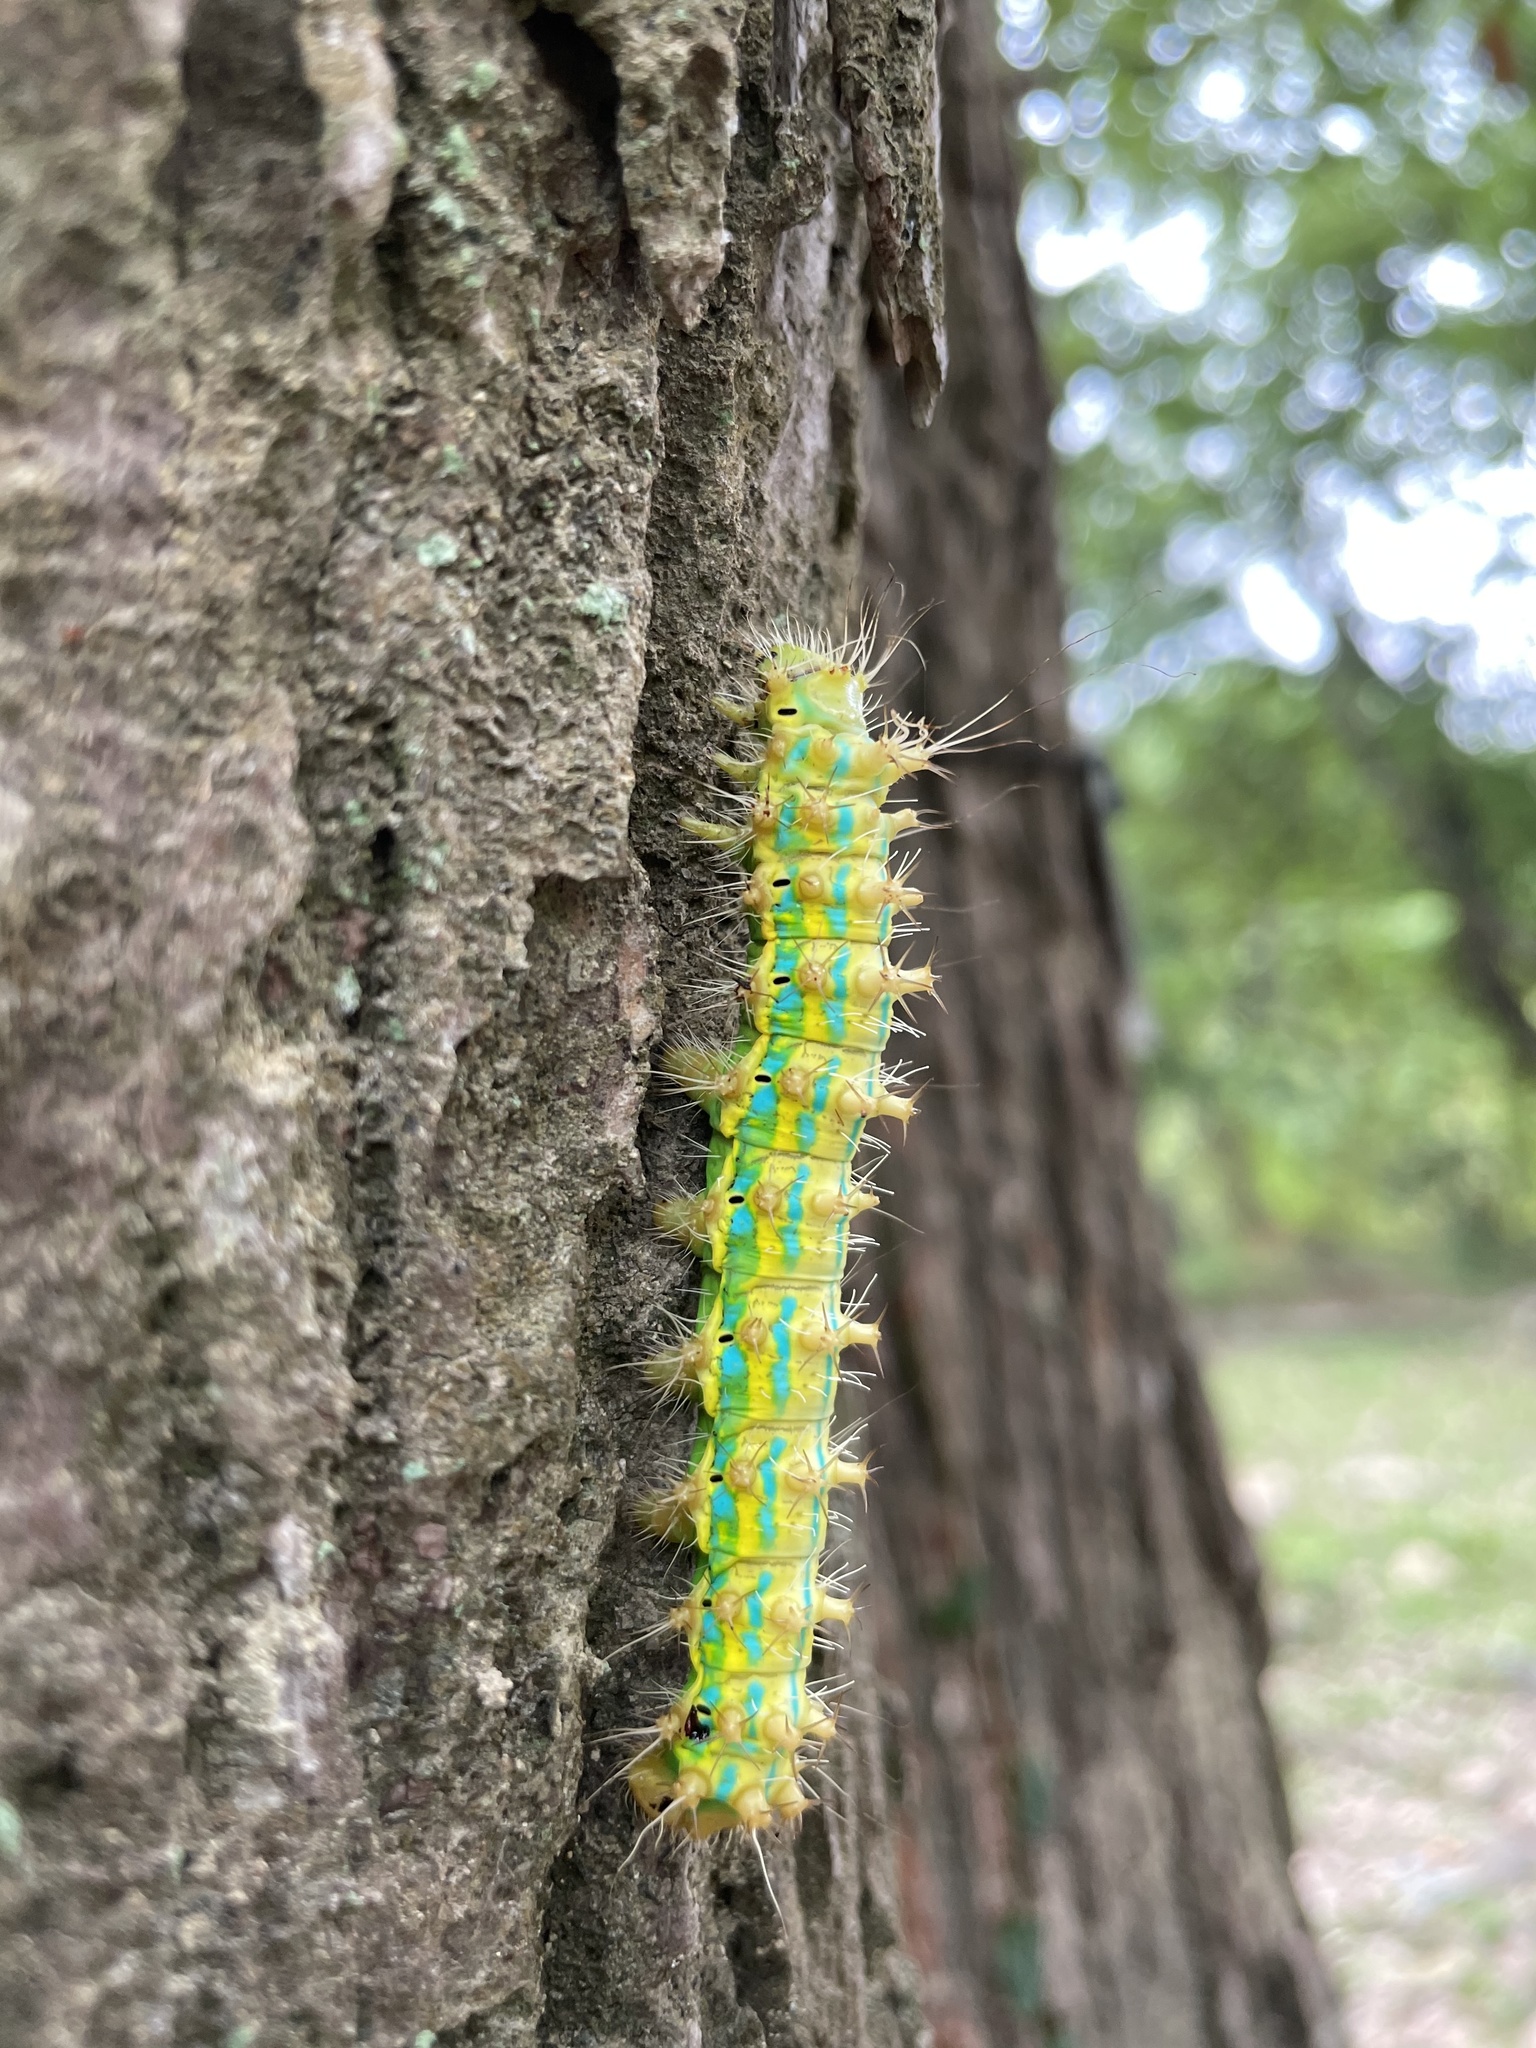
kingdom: Animalia
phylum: Arthropoda
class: Insecta
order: Lepidoptera
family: Saturniidae
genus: Saturnia
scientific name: Saturnia pyretorum
